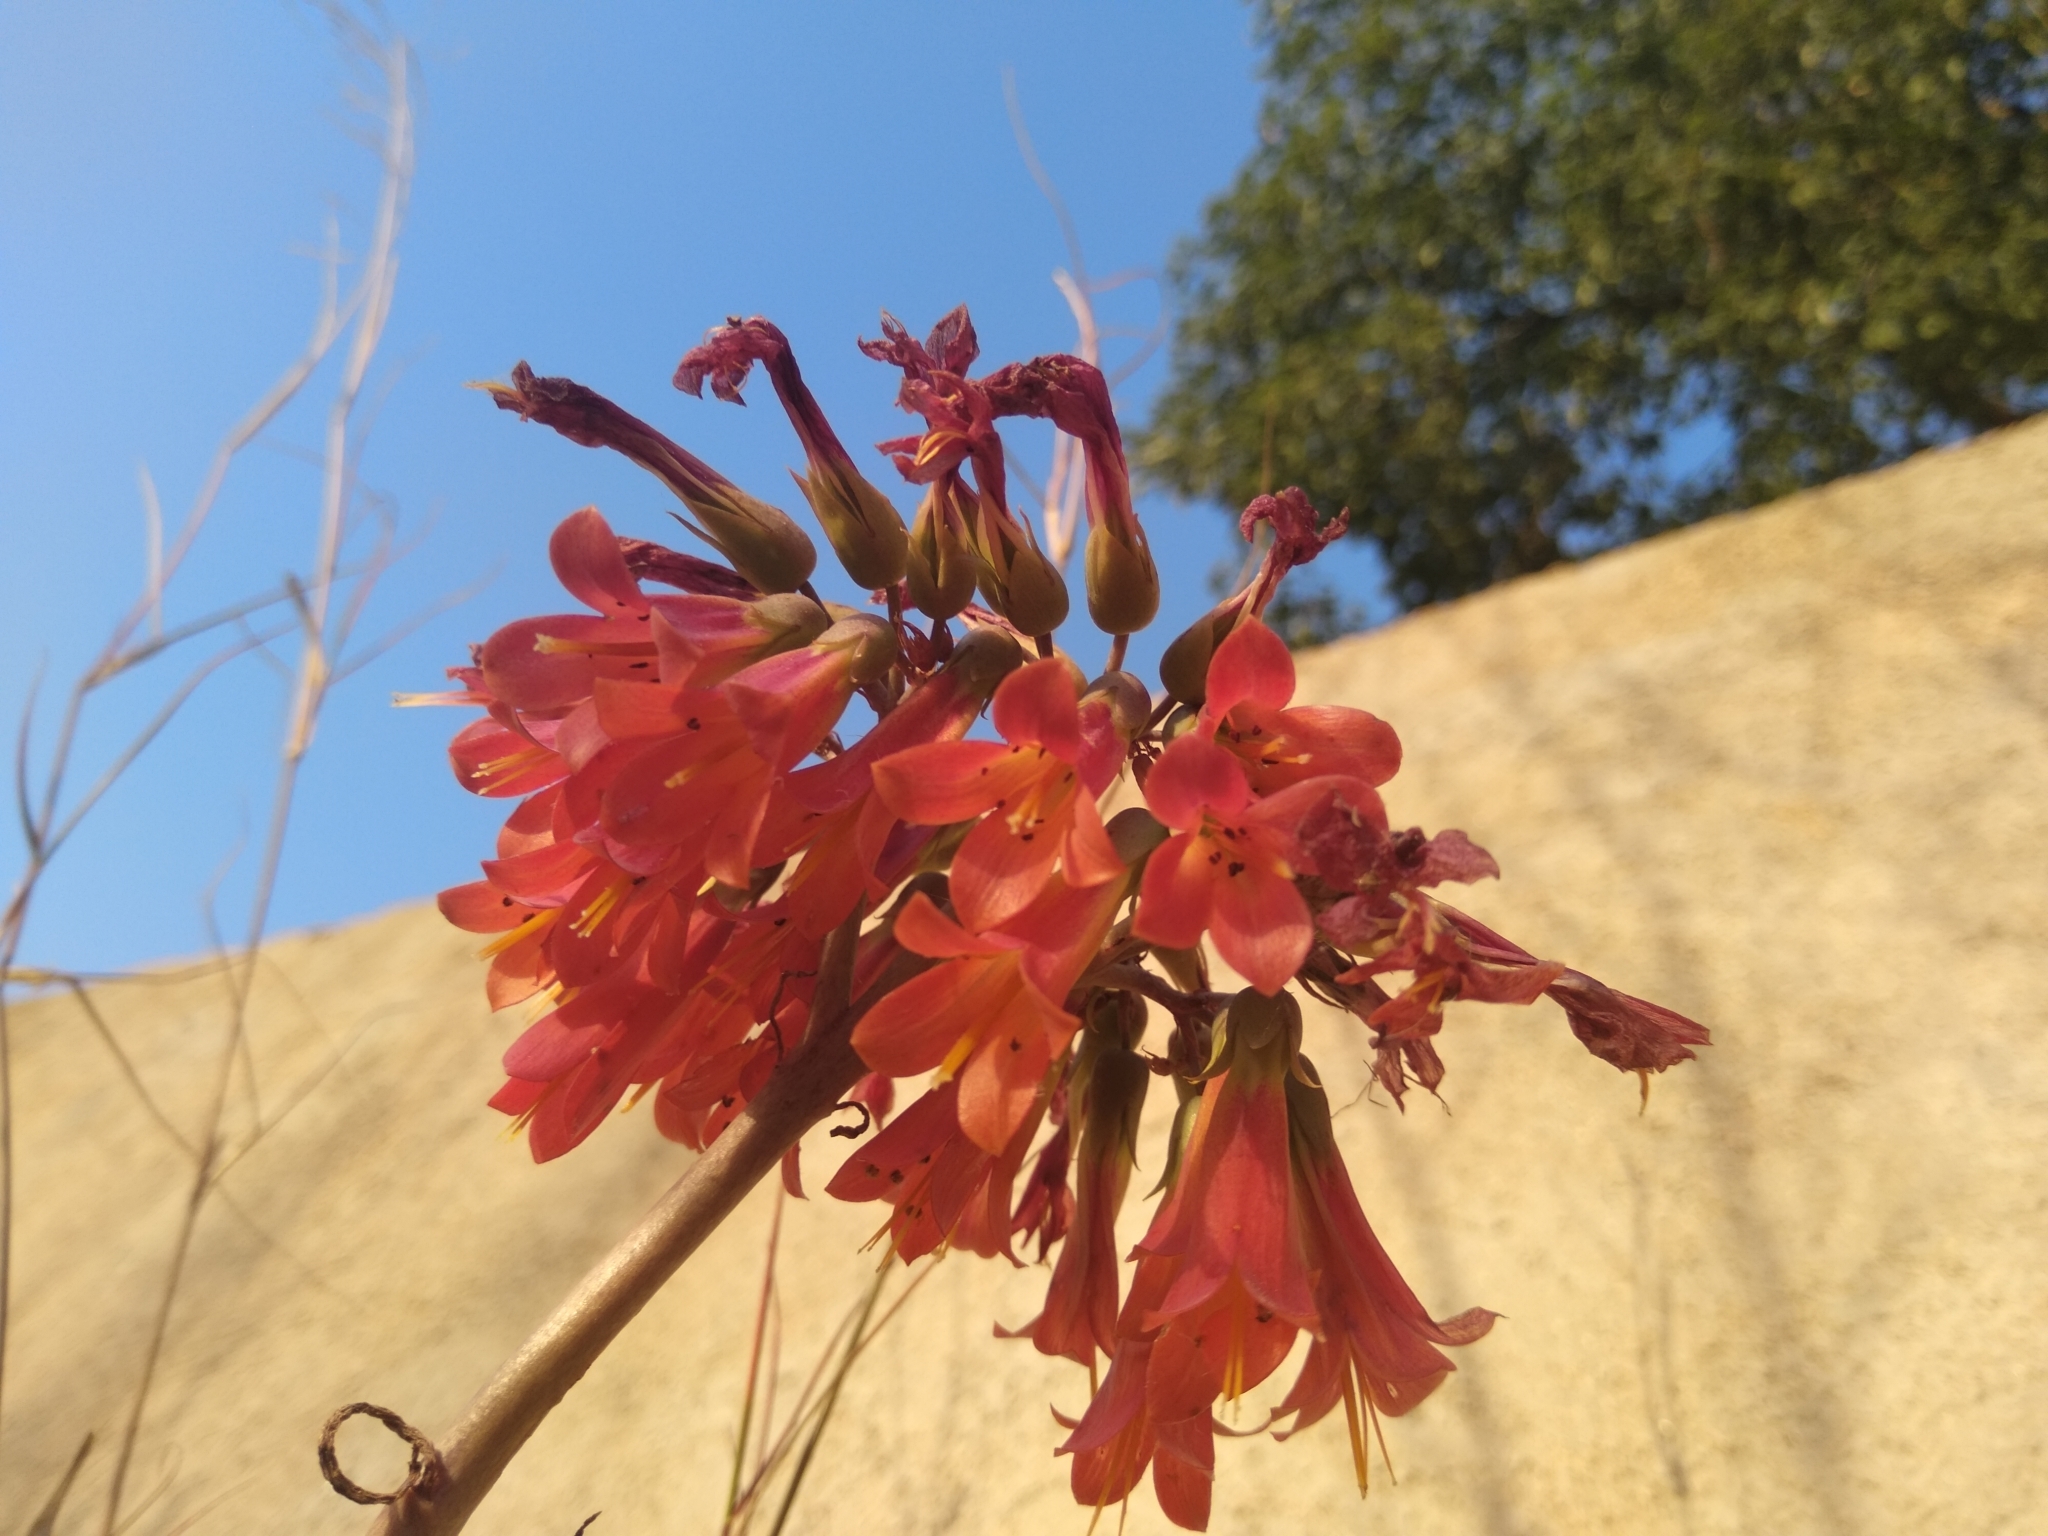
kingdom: Plantae
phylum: Tracheophyta
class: Magnoliopsida
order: Saxifragales
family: Crassulaceae
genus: Kalanchoe
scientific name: Kalanchoe delagoensis
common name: Chandelier plant
